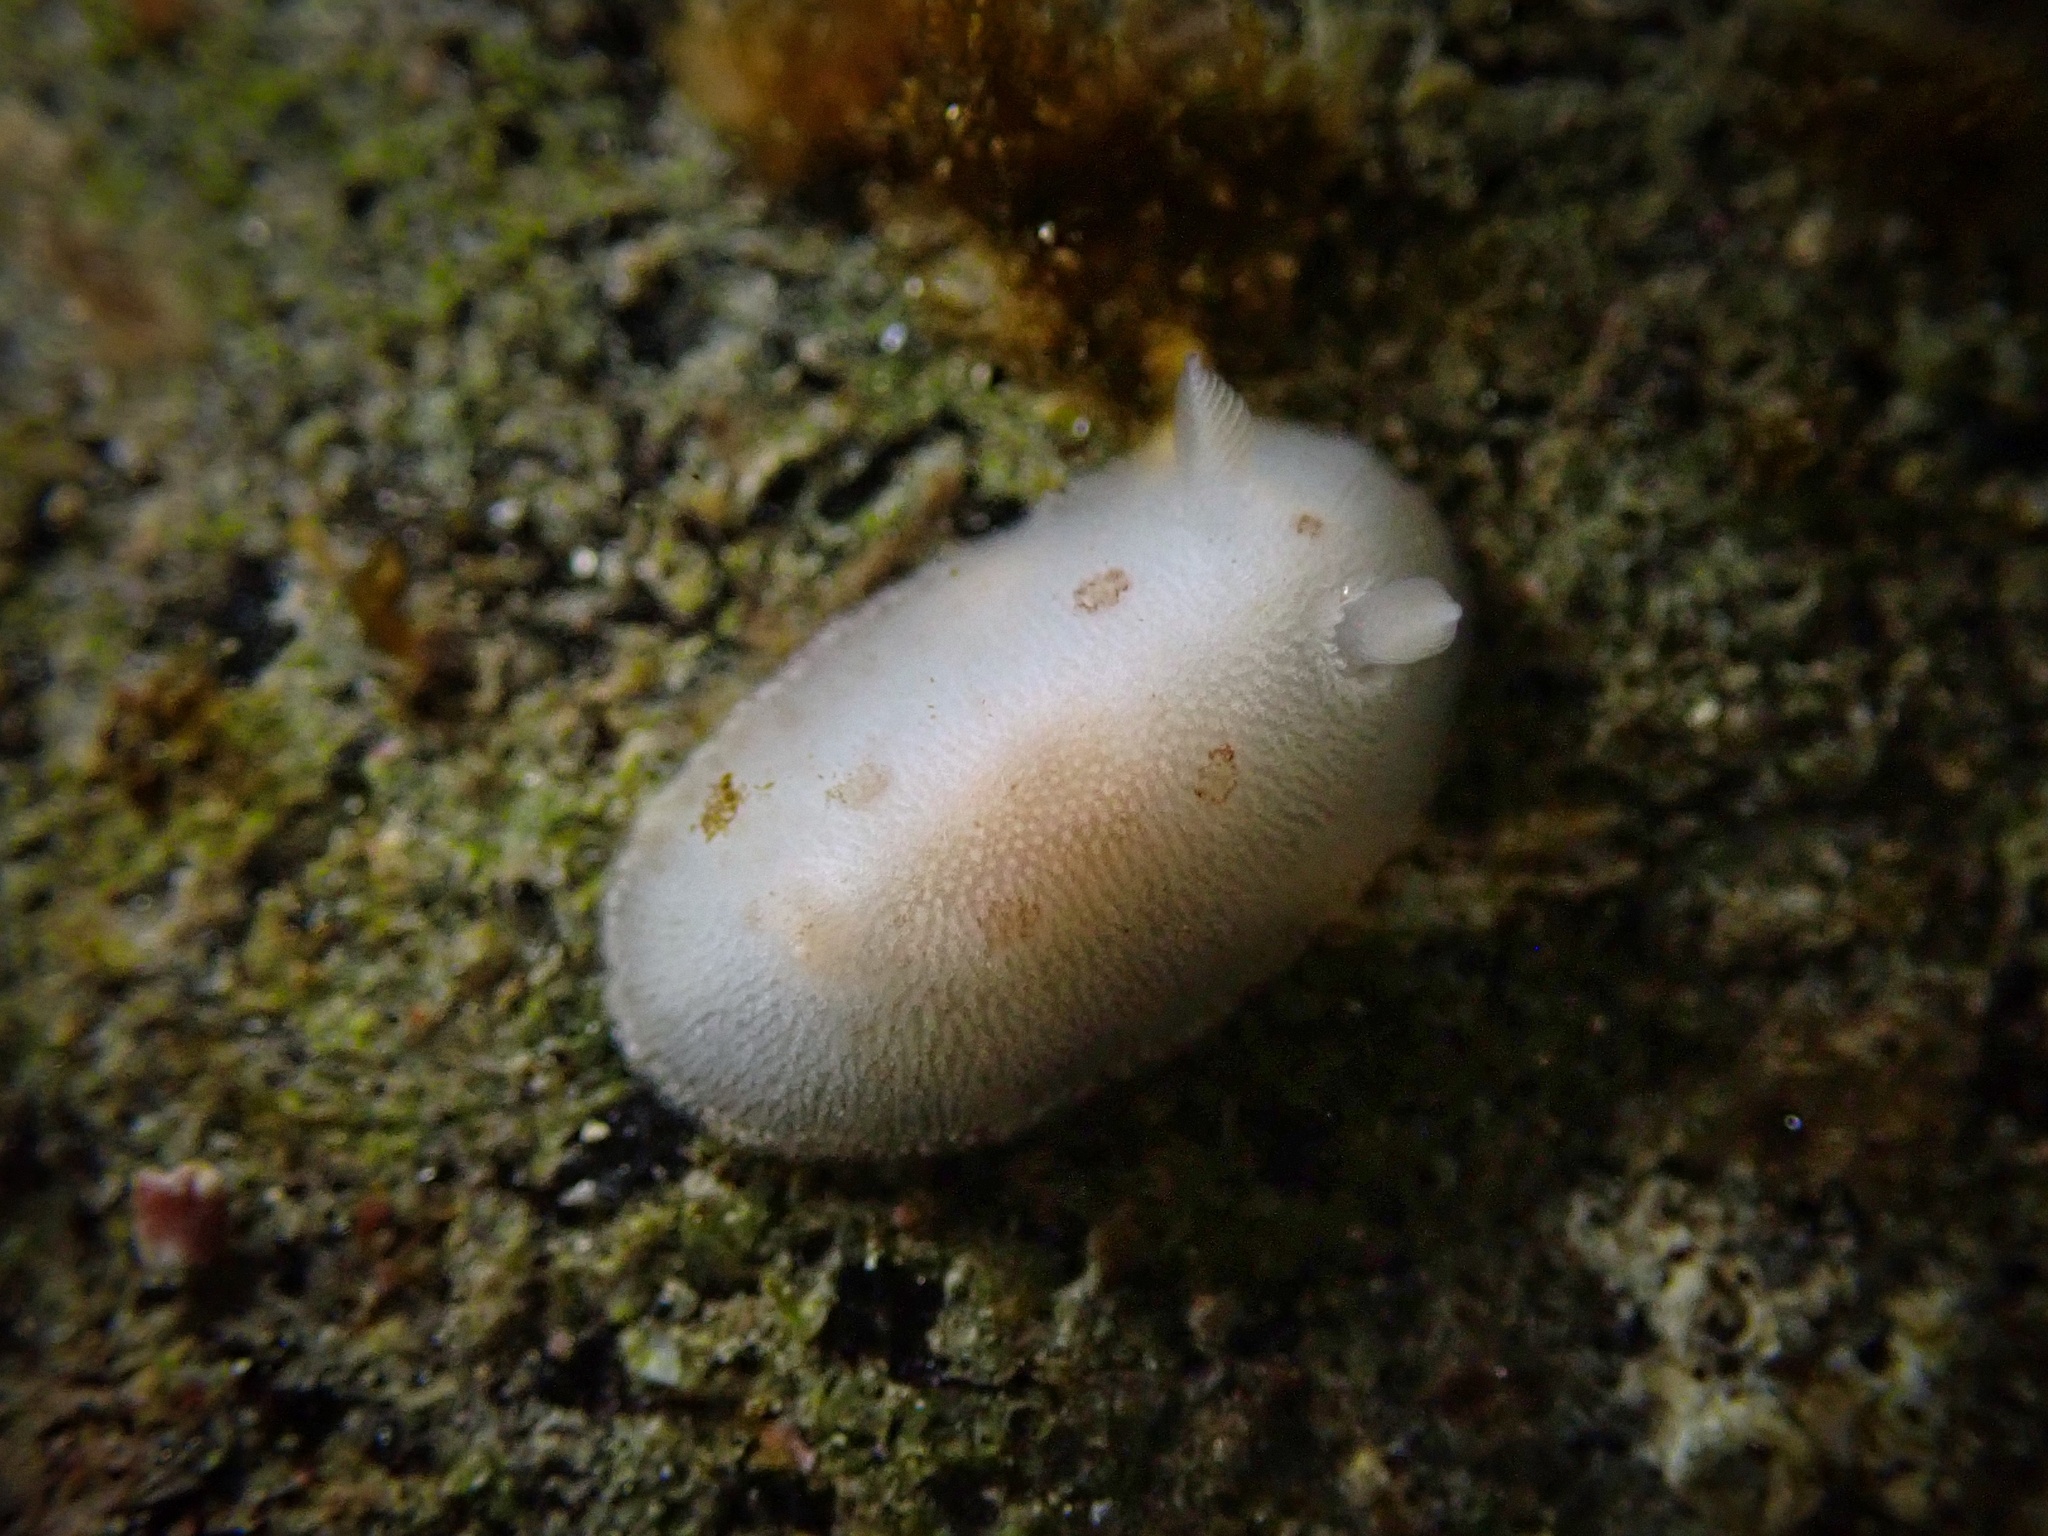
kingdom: Animalia
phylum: Mollusca
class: Gastropoda
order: Nudibranchia
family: Discodorididae
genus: Diaulula
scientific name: Diaulula sandiegensis
